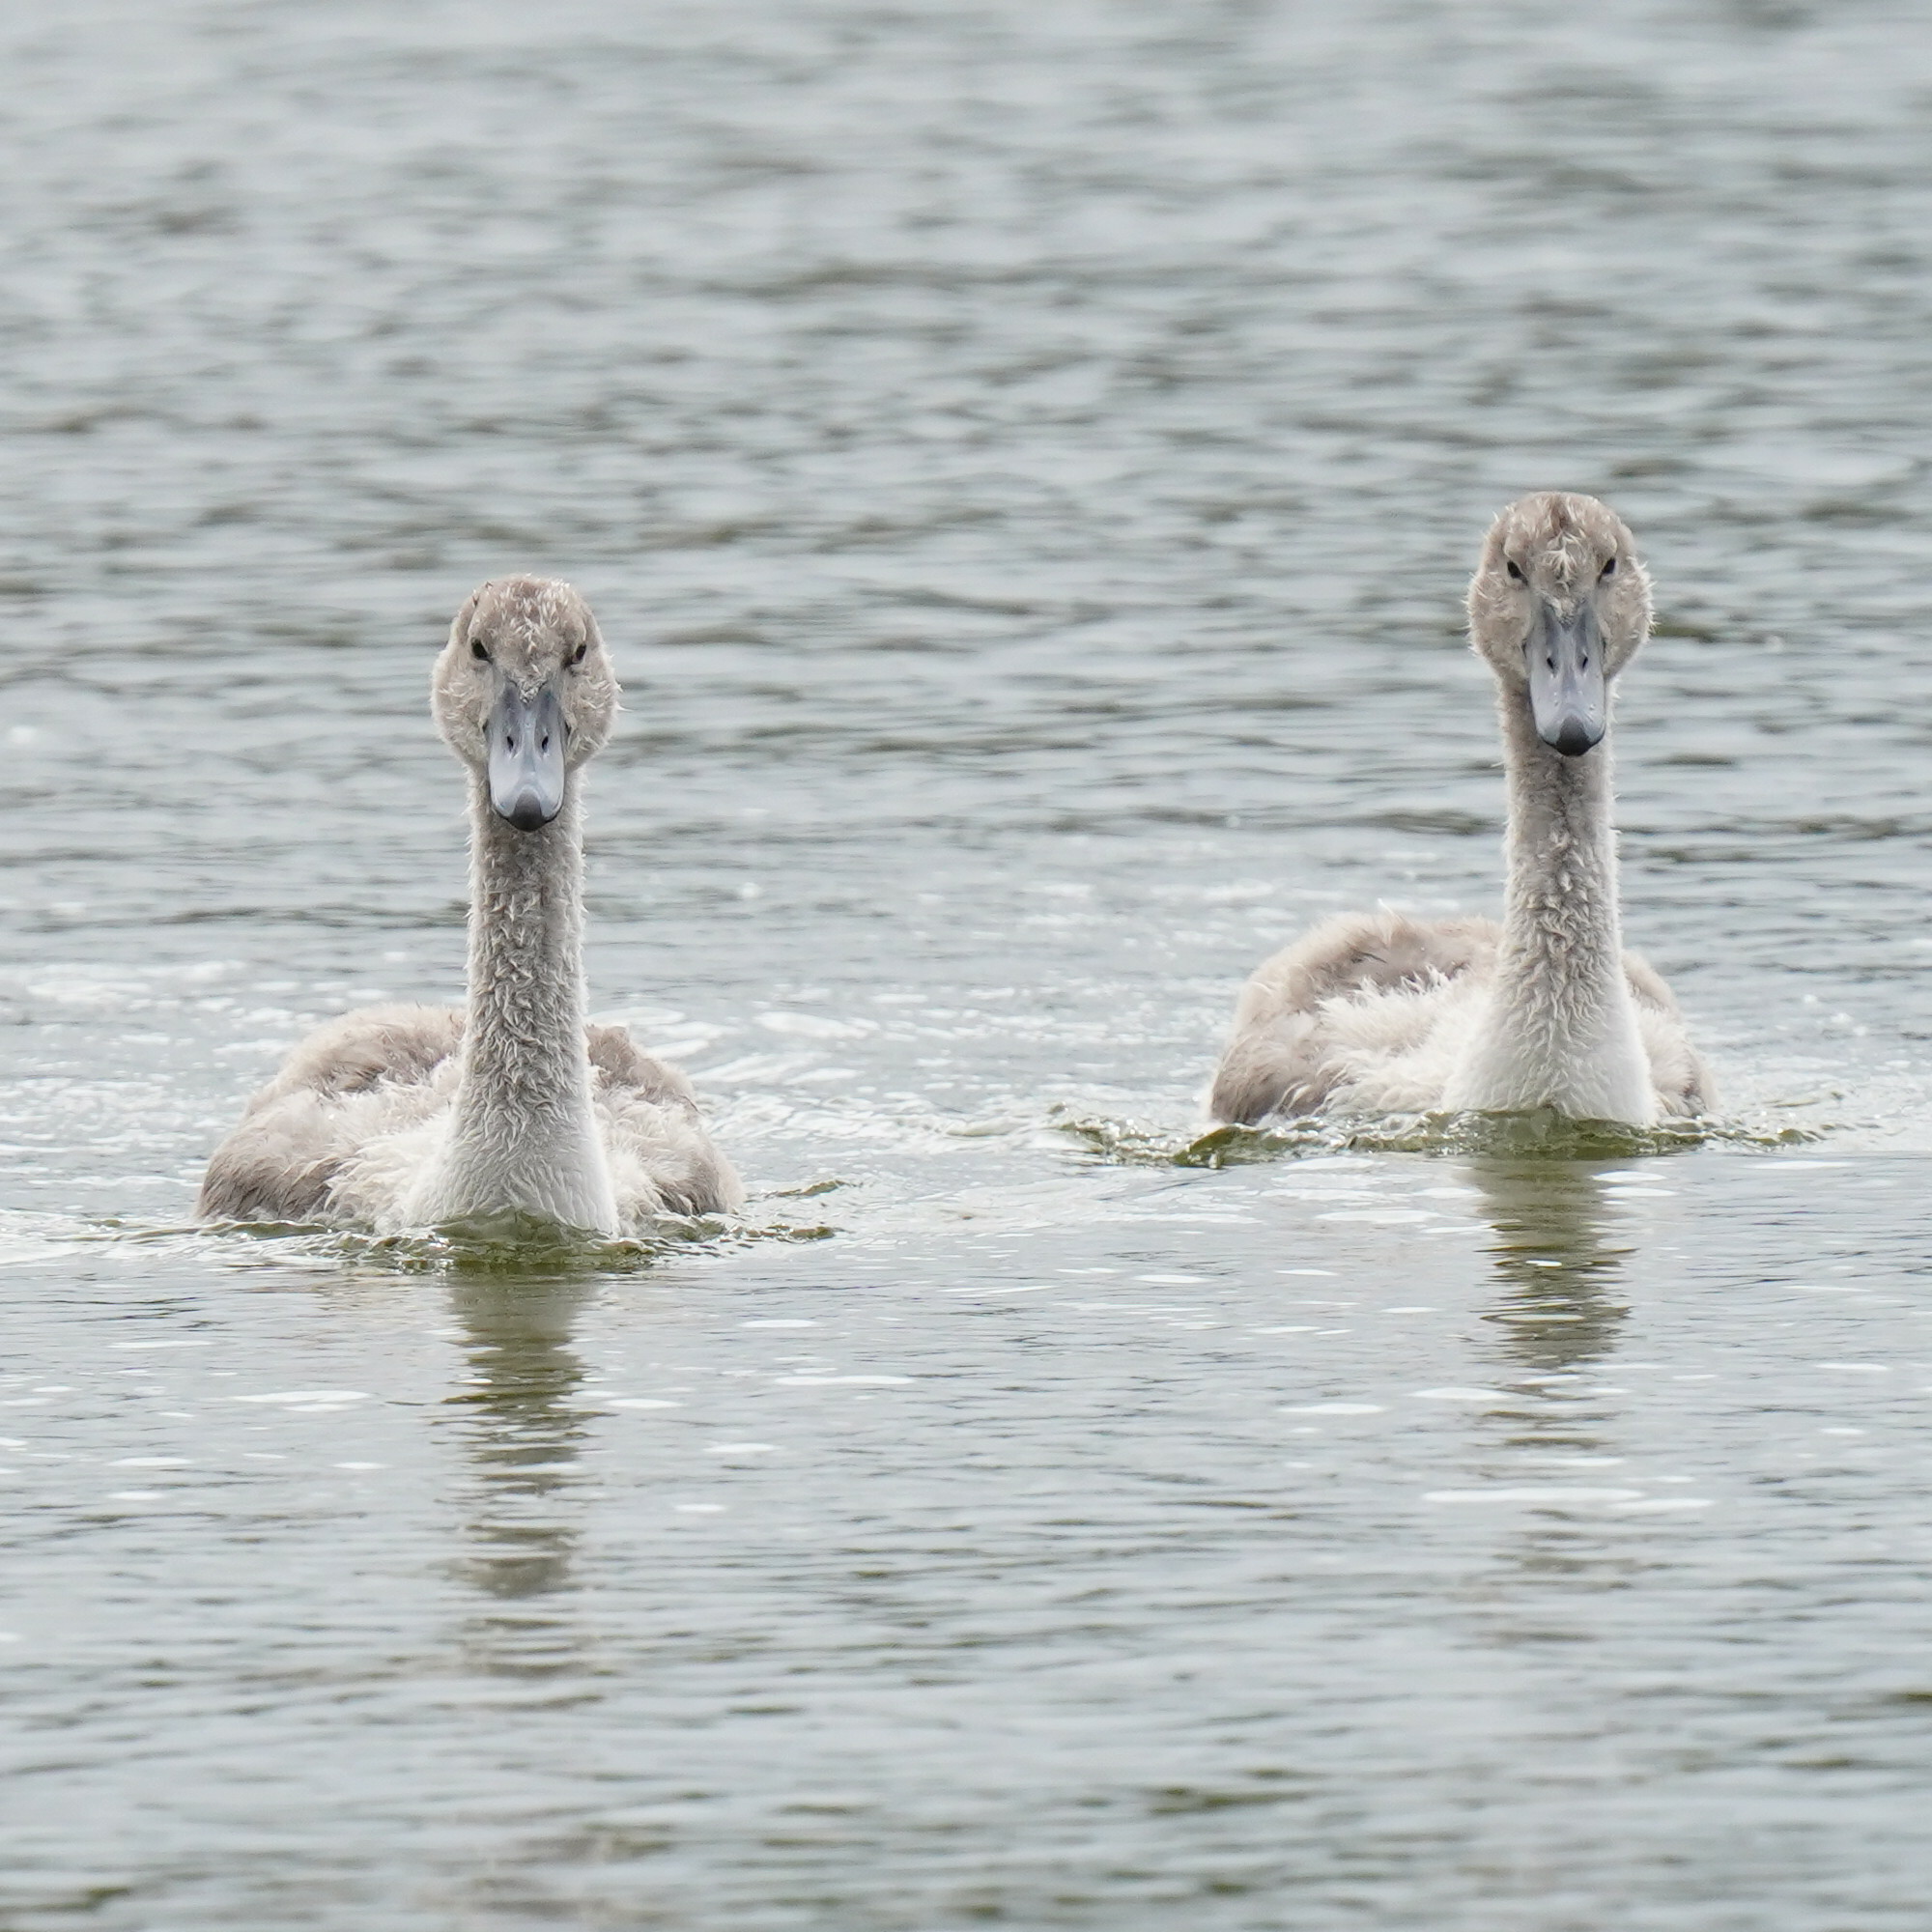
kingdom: Animalia
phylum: Chordata
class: Aves
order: Anseriformes
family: Anatidae
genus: Cygnus
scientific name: Cygnus olor
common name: Mute swan
